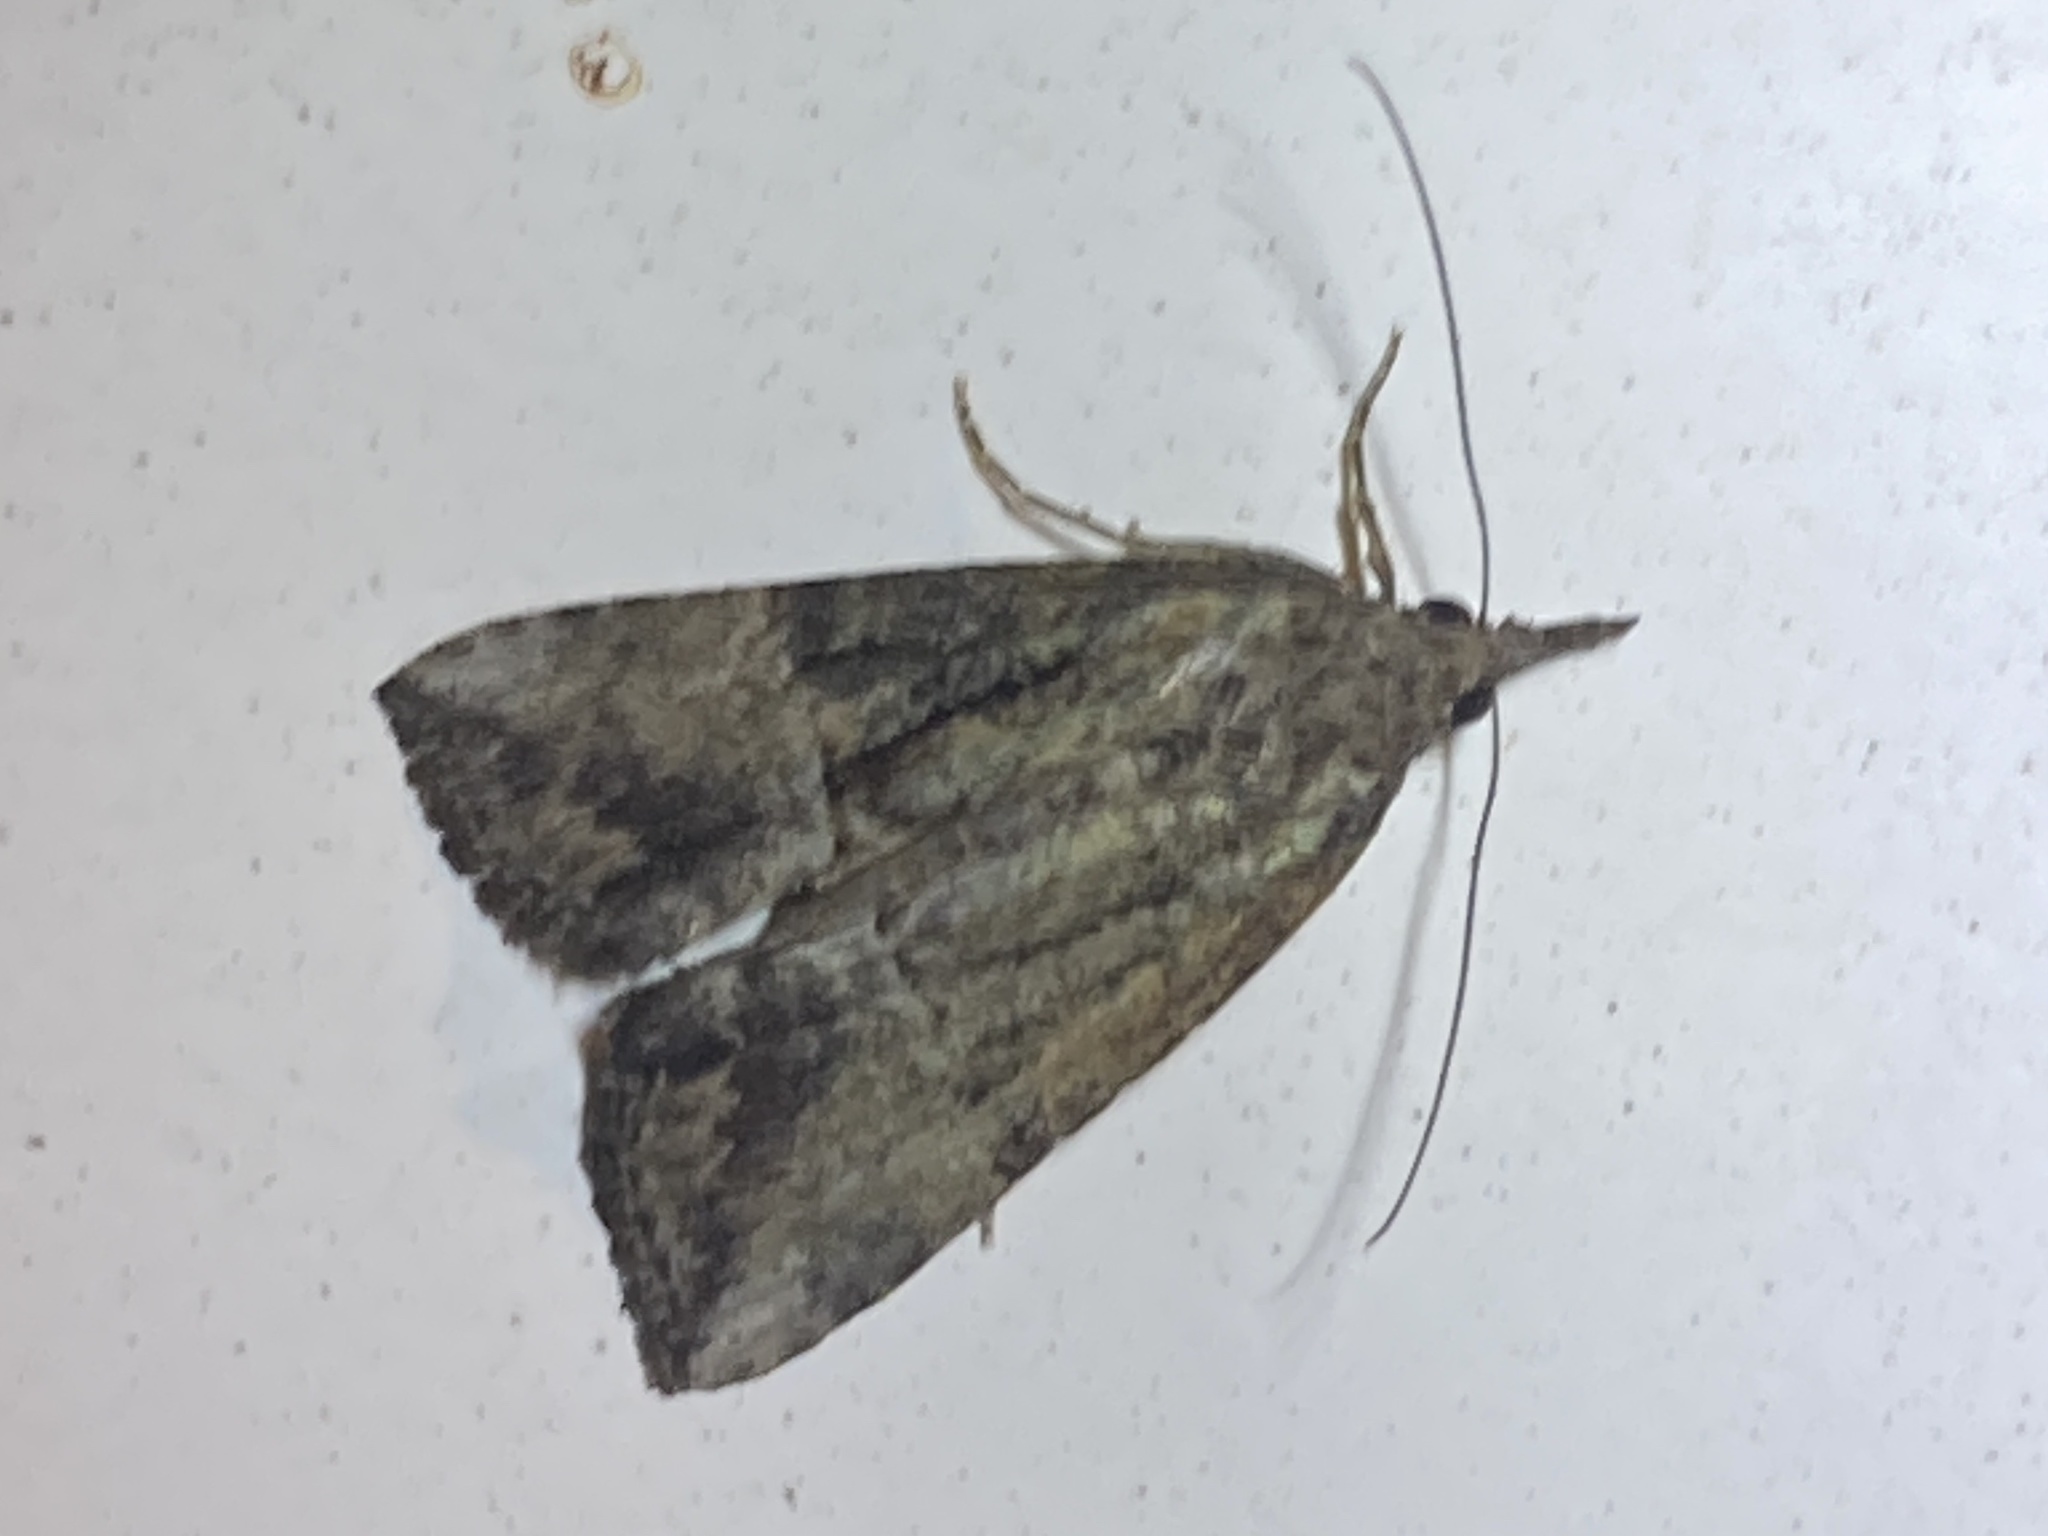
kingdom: Animalia
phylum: Arthropoda
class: Insecta
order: Lepidoptera
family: Erebidae
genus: Hypena
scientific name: Hypena scabra
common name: Green cloverworm
